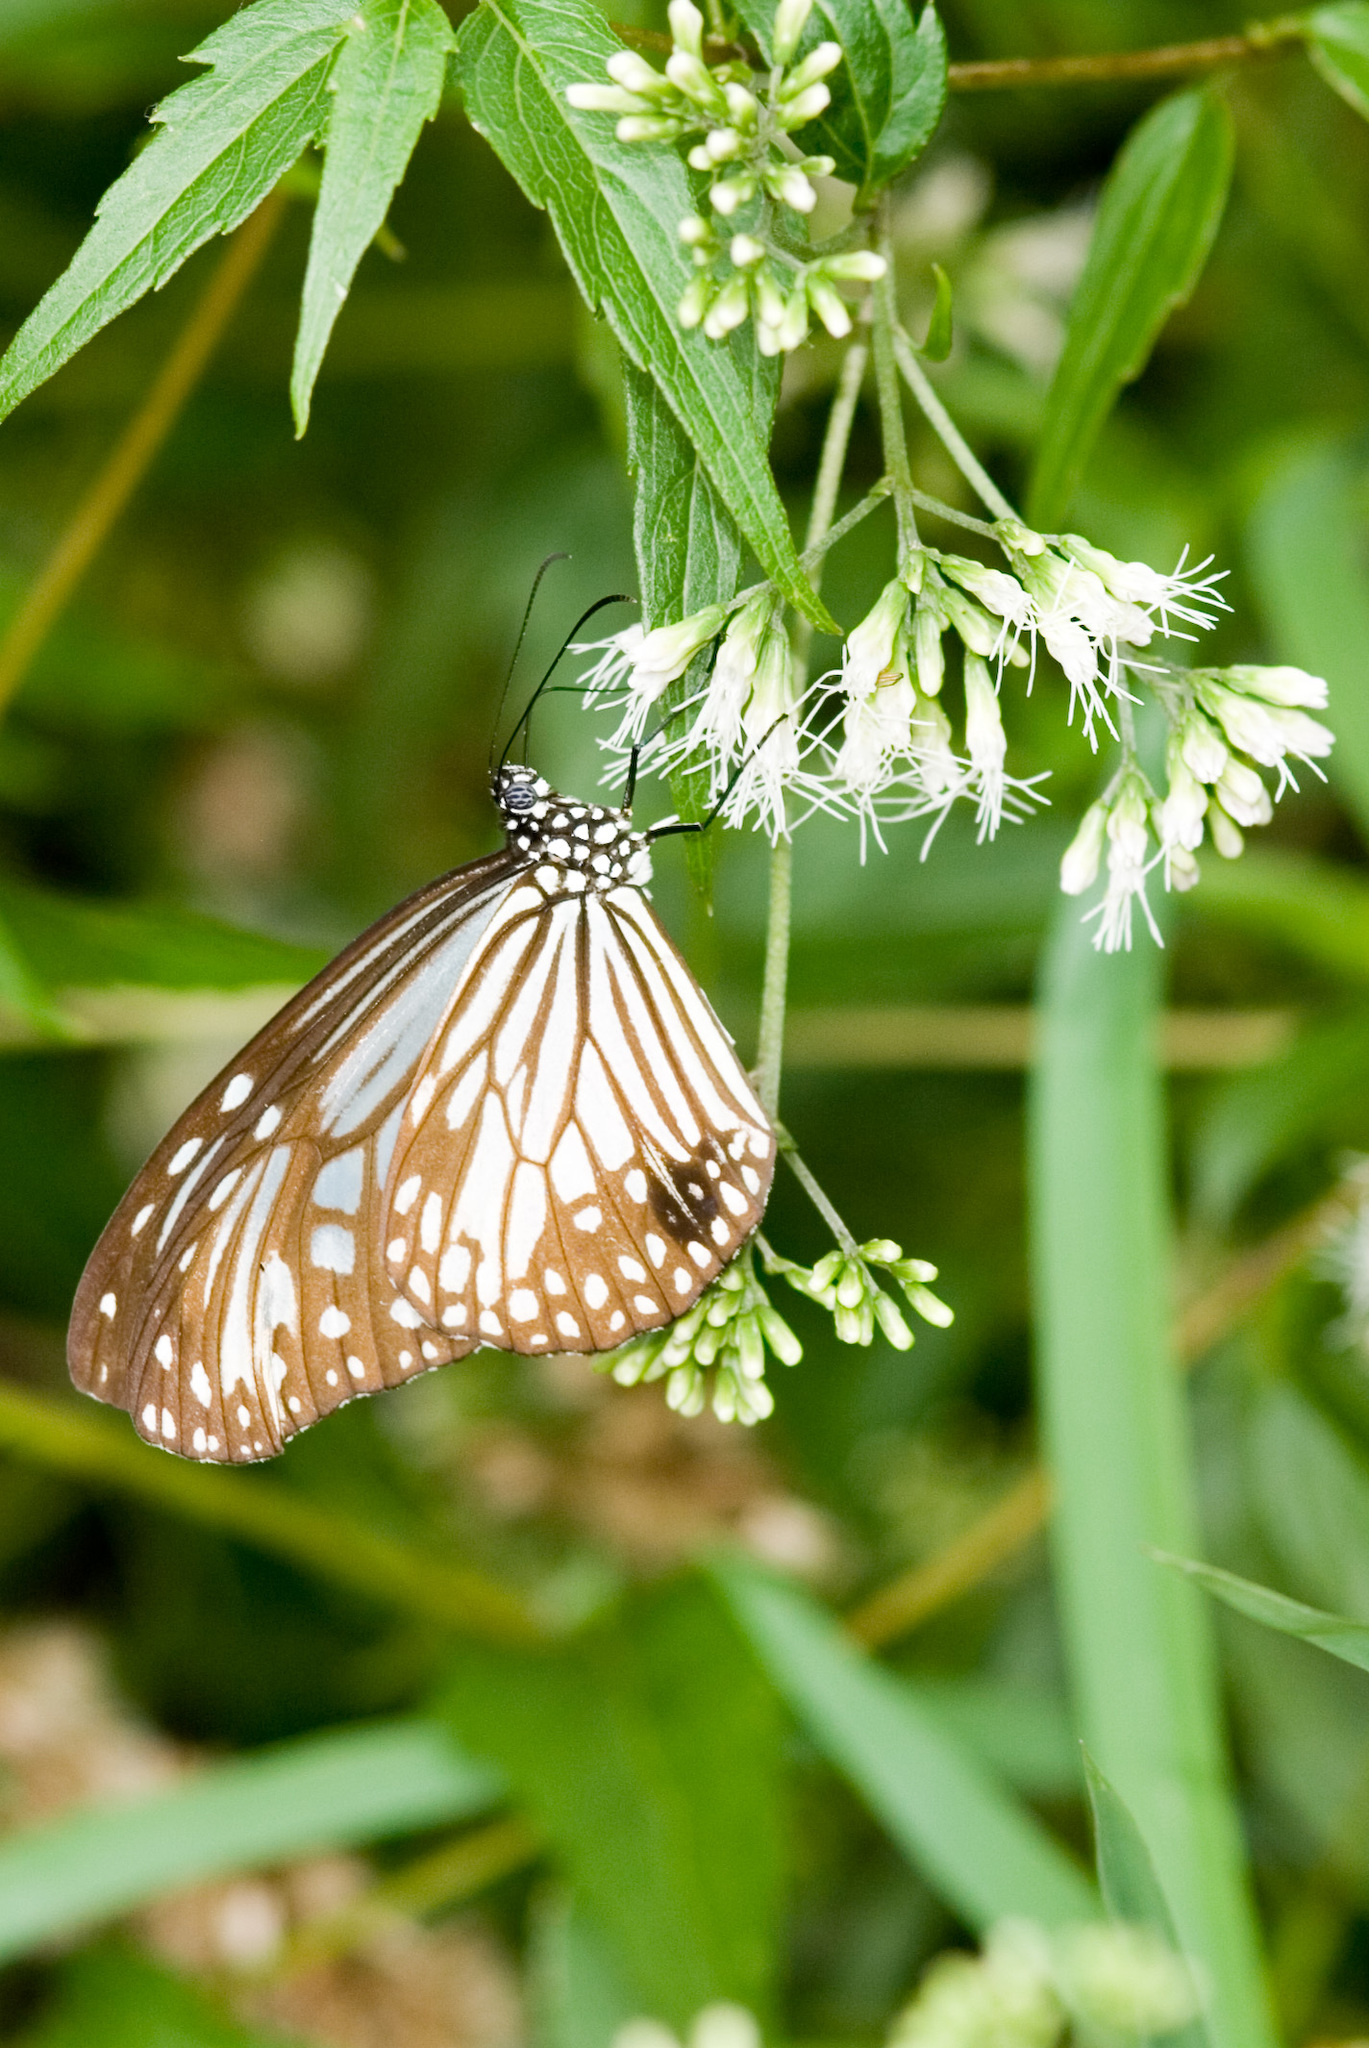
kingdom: Animalia
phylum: Arthropoda
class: Insecta
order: Lepidoptera
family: Nymphalidae
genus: Parantica
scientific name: Parantica aglea
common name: Glassy tiger
